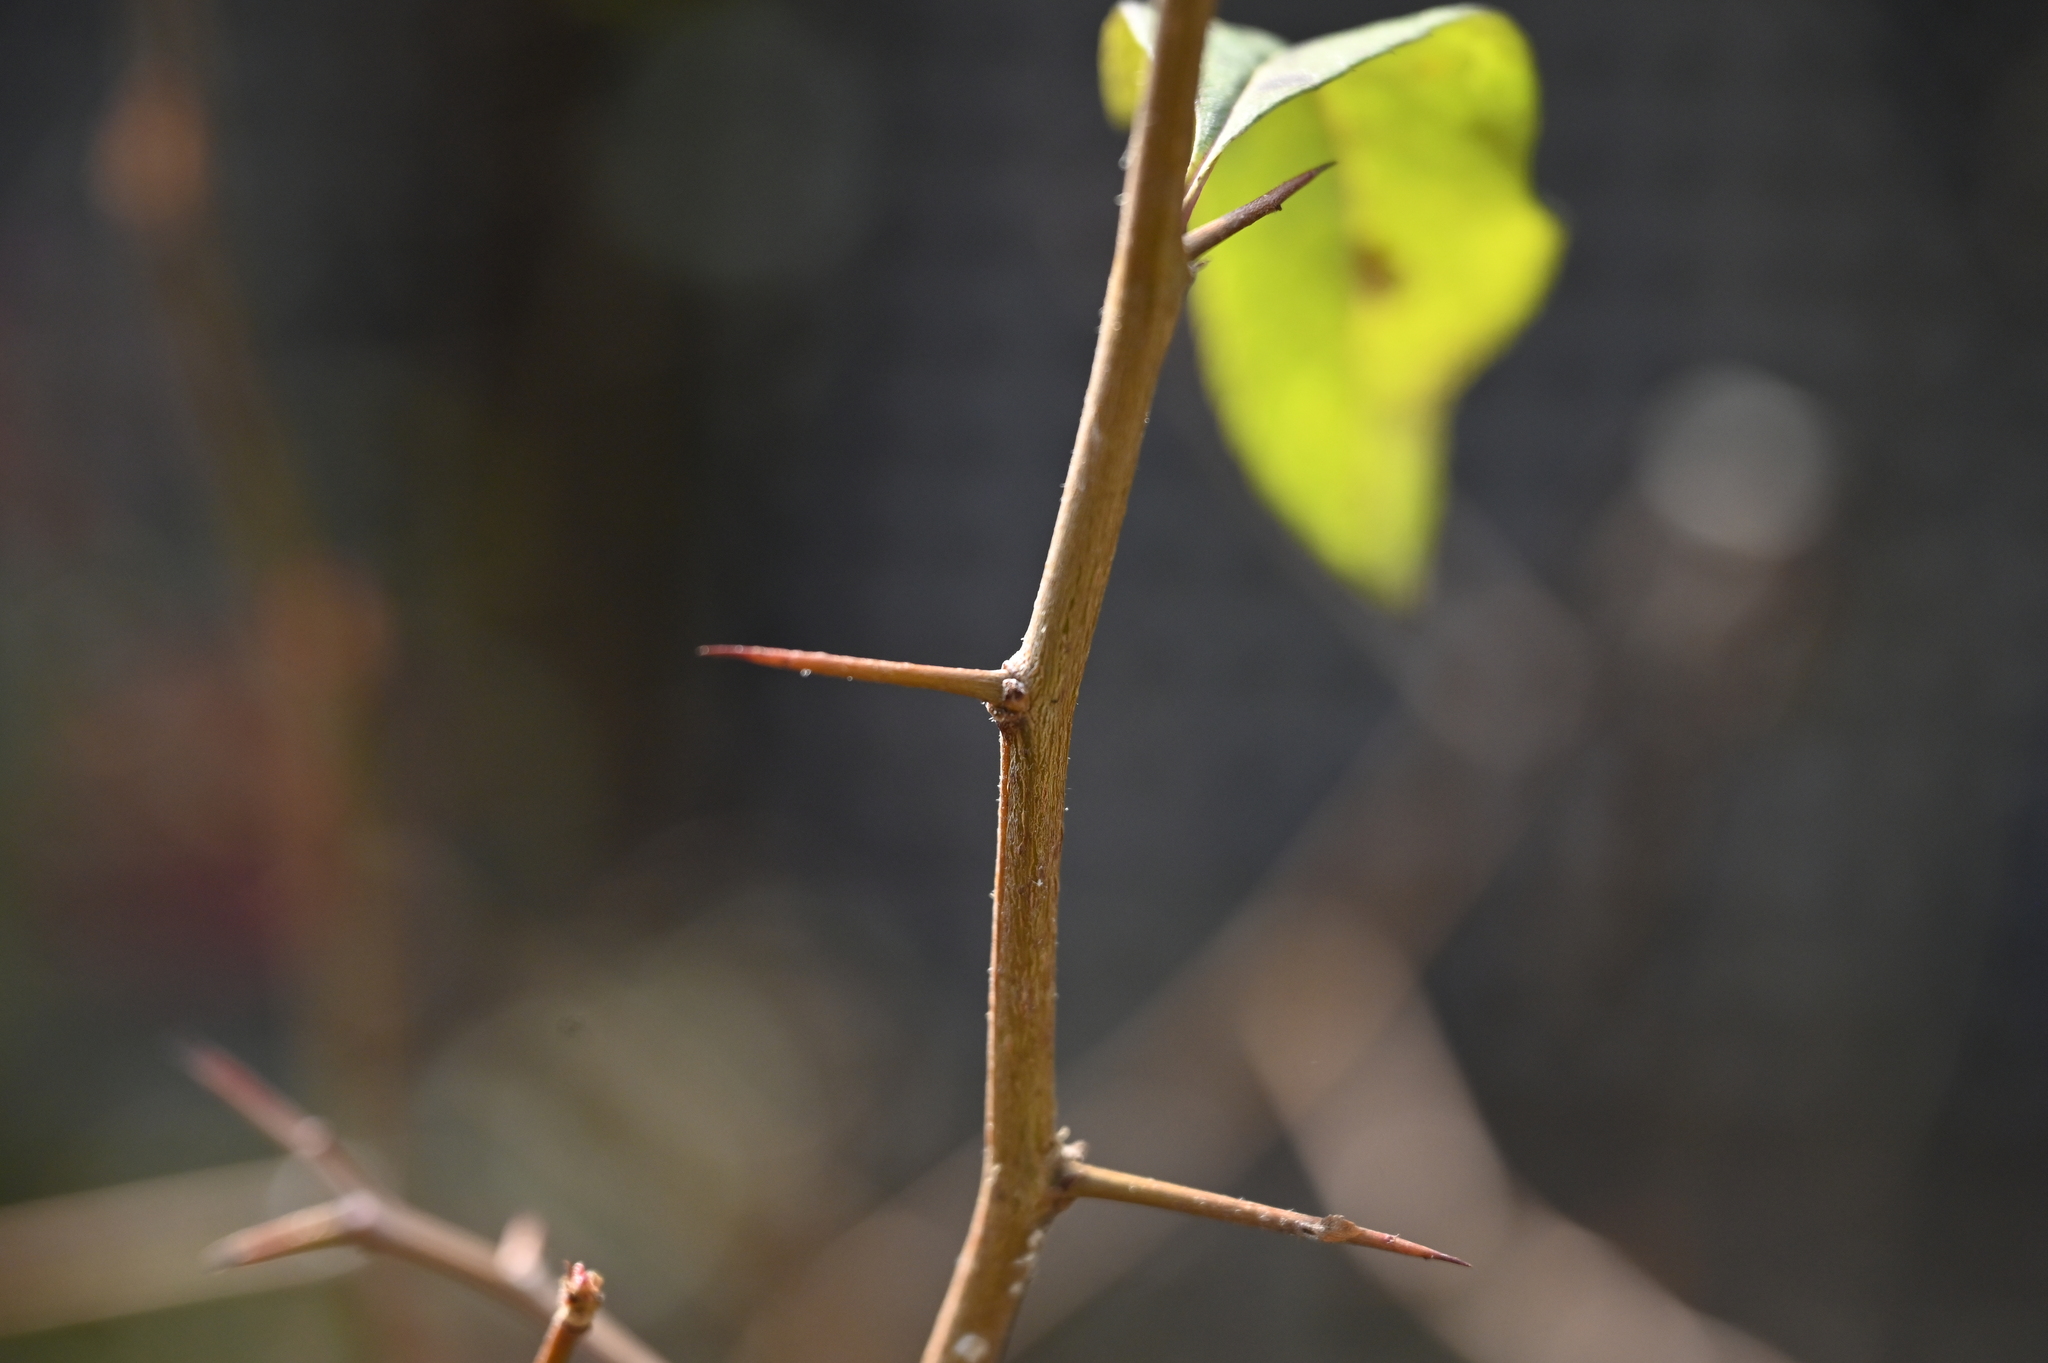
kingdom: Plantae
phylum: Tracheophyta
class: Magnoliopsida
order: Rosales
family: Rosaceae
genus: Chaenomeles
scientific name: Chaenomeles speciosa
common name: Japanese quince
